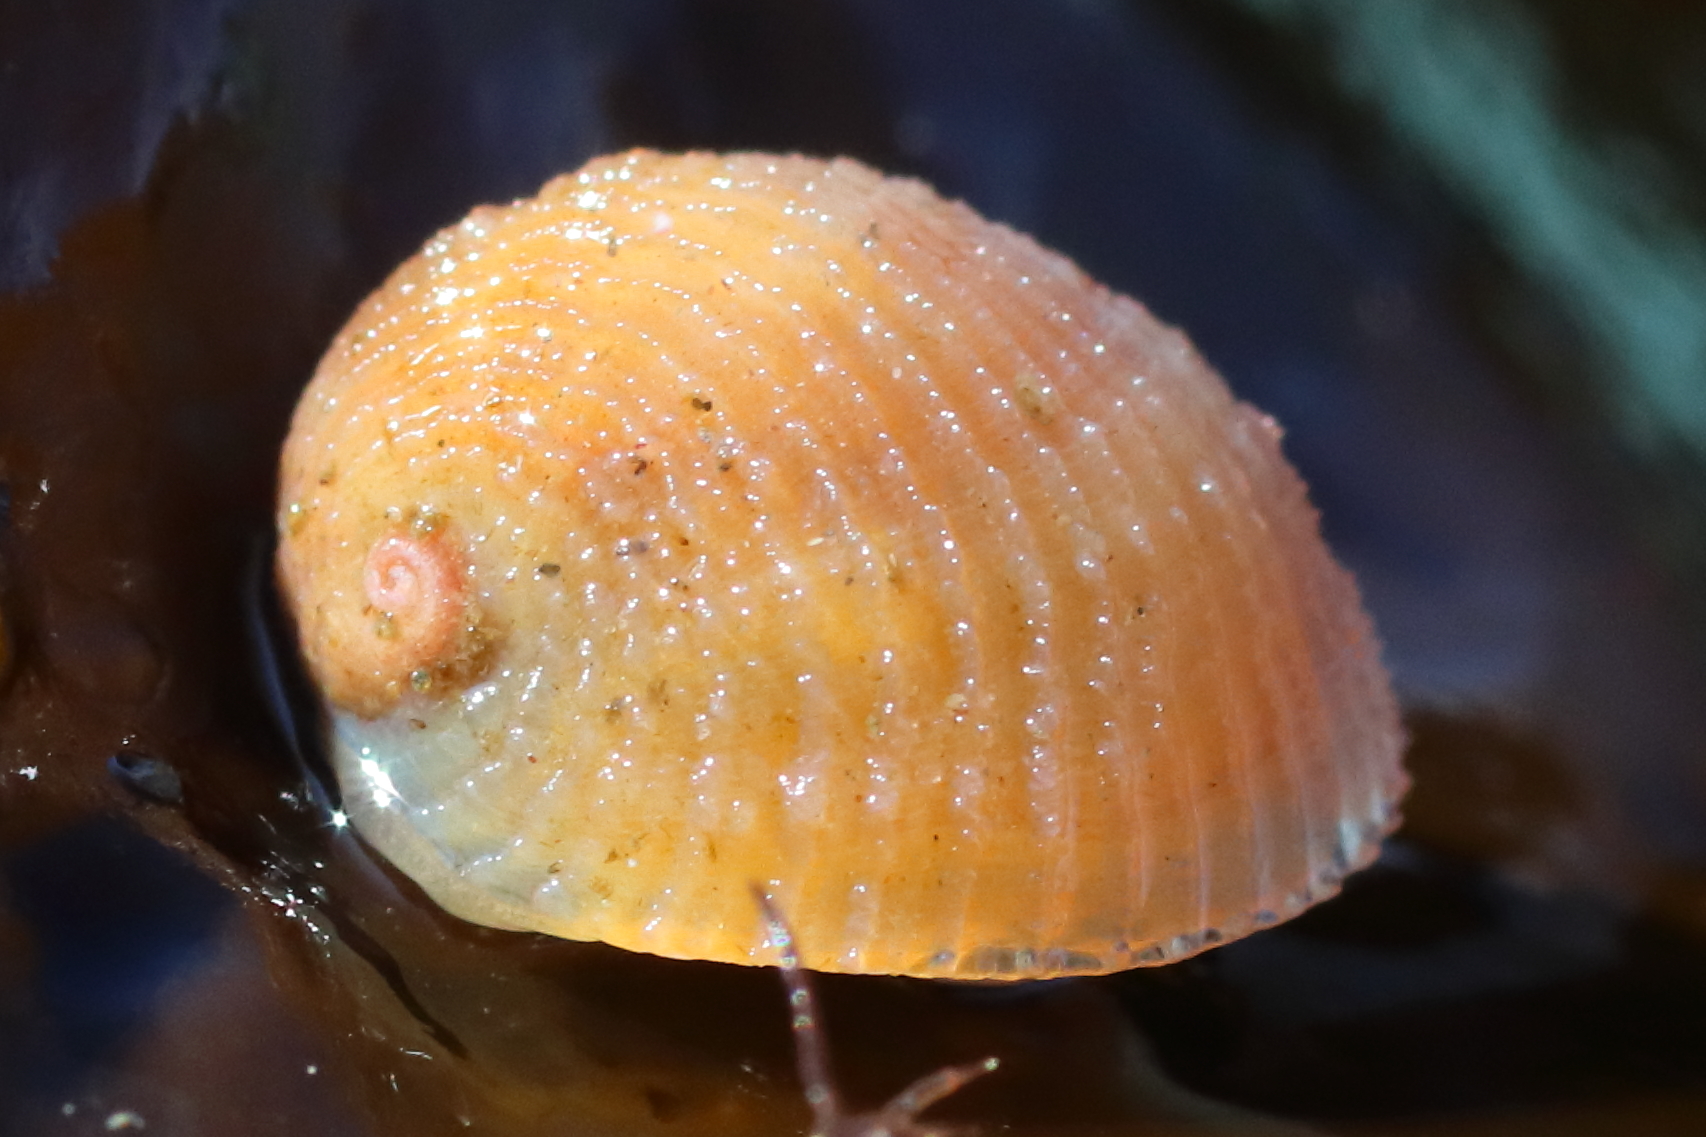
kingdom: Animalia
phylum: Mollusca
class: Gastropoda
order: Littorinimorpha
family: Velutinidae
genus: Velutina
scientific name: Velutina velutina
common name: Smooth lamellaria
